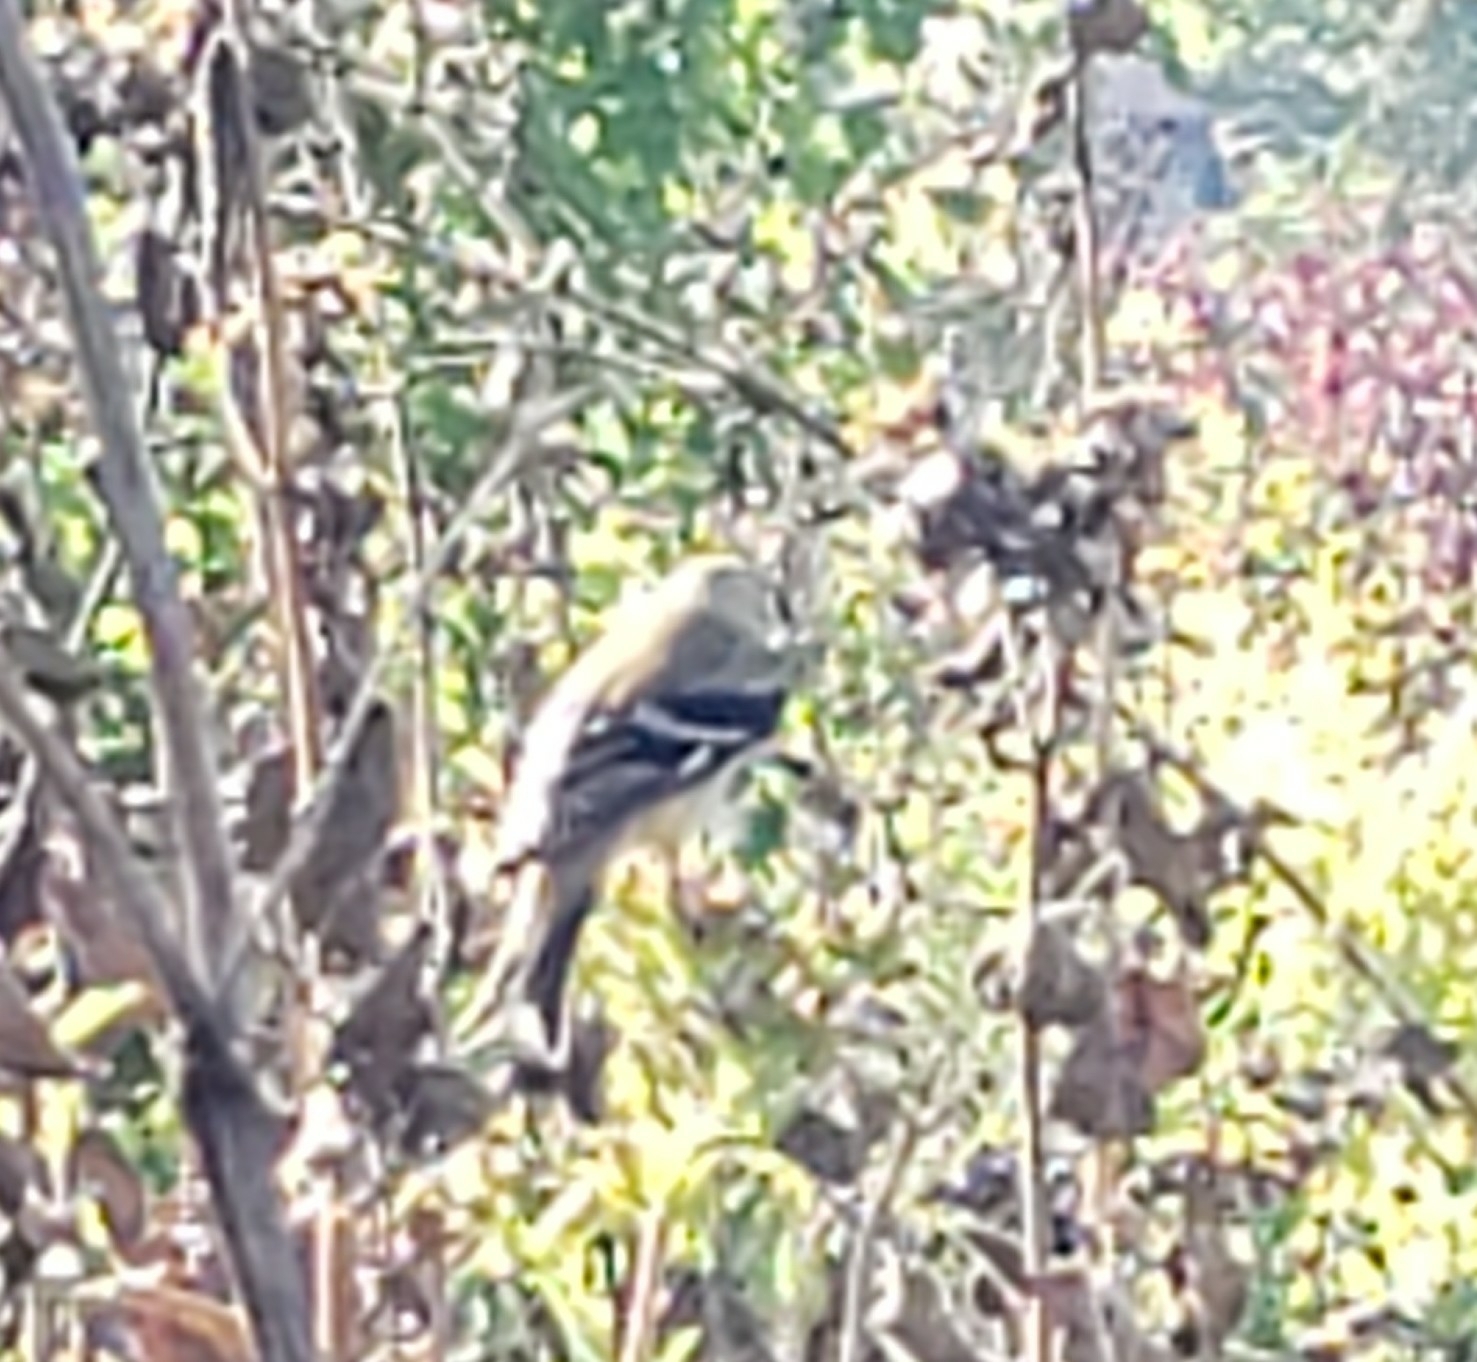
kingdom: Animalia
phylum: Chordata
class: Aves
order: Passeriformes
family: Fringillidae
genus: Spinus
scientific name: Spinus tristis
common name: American goldfinch
